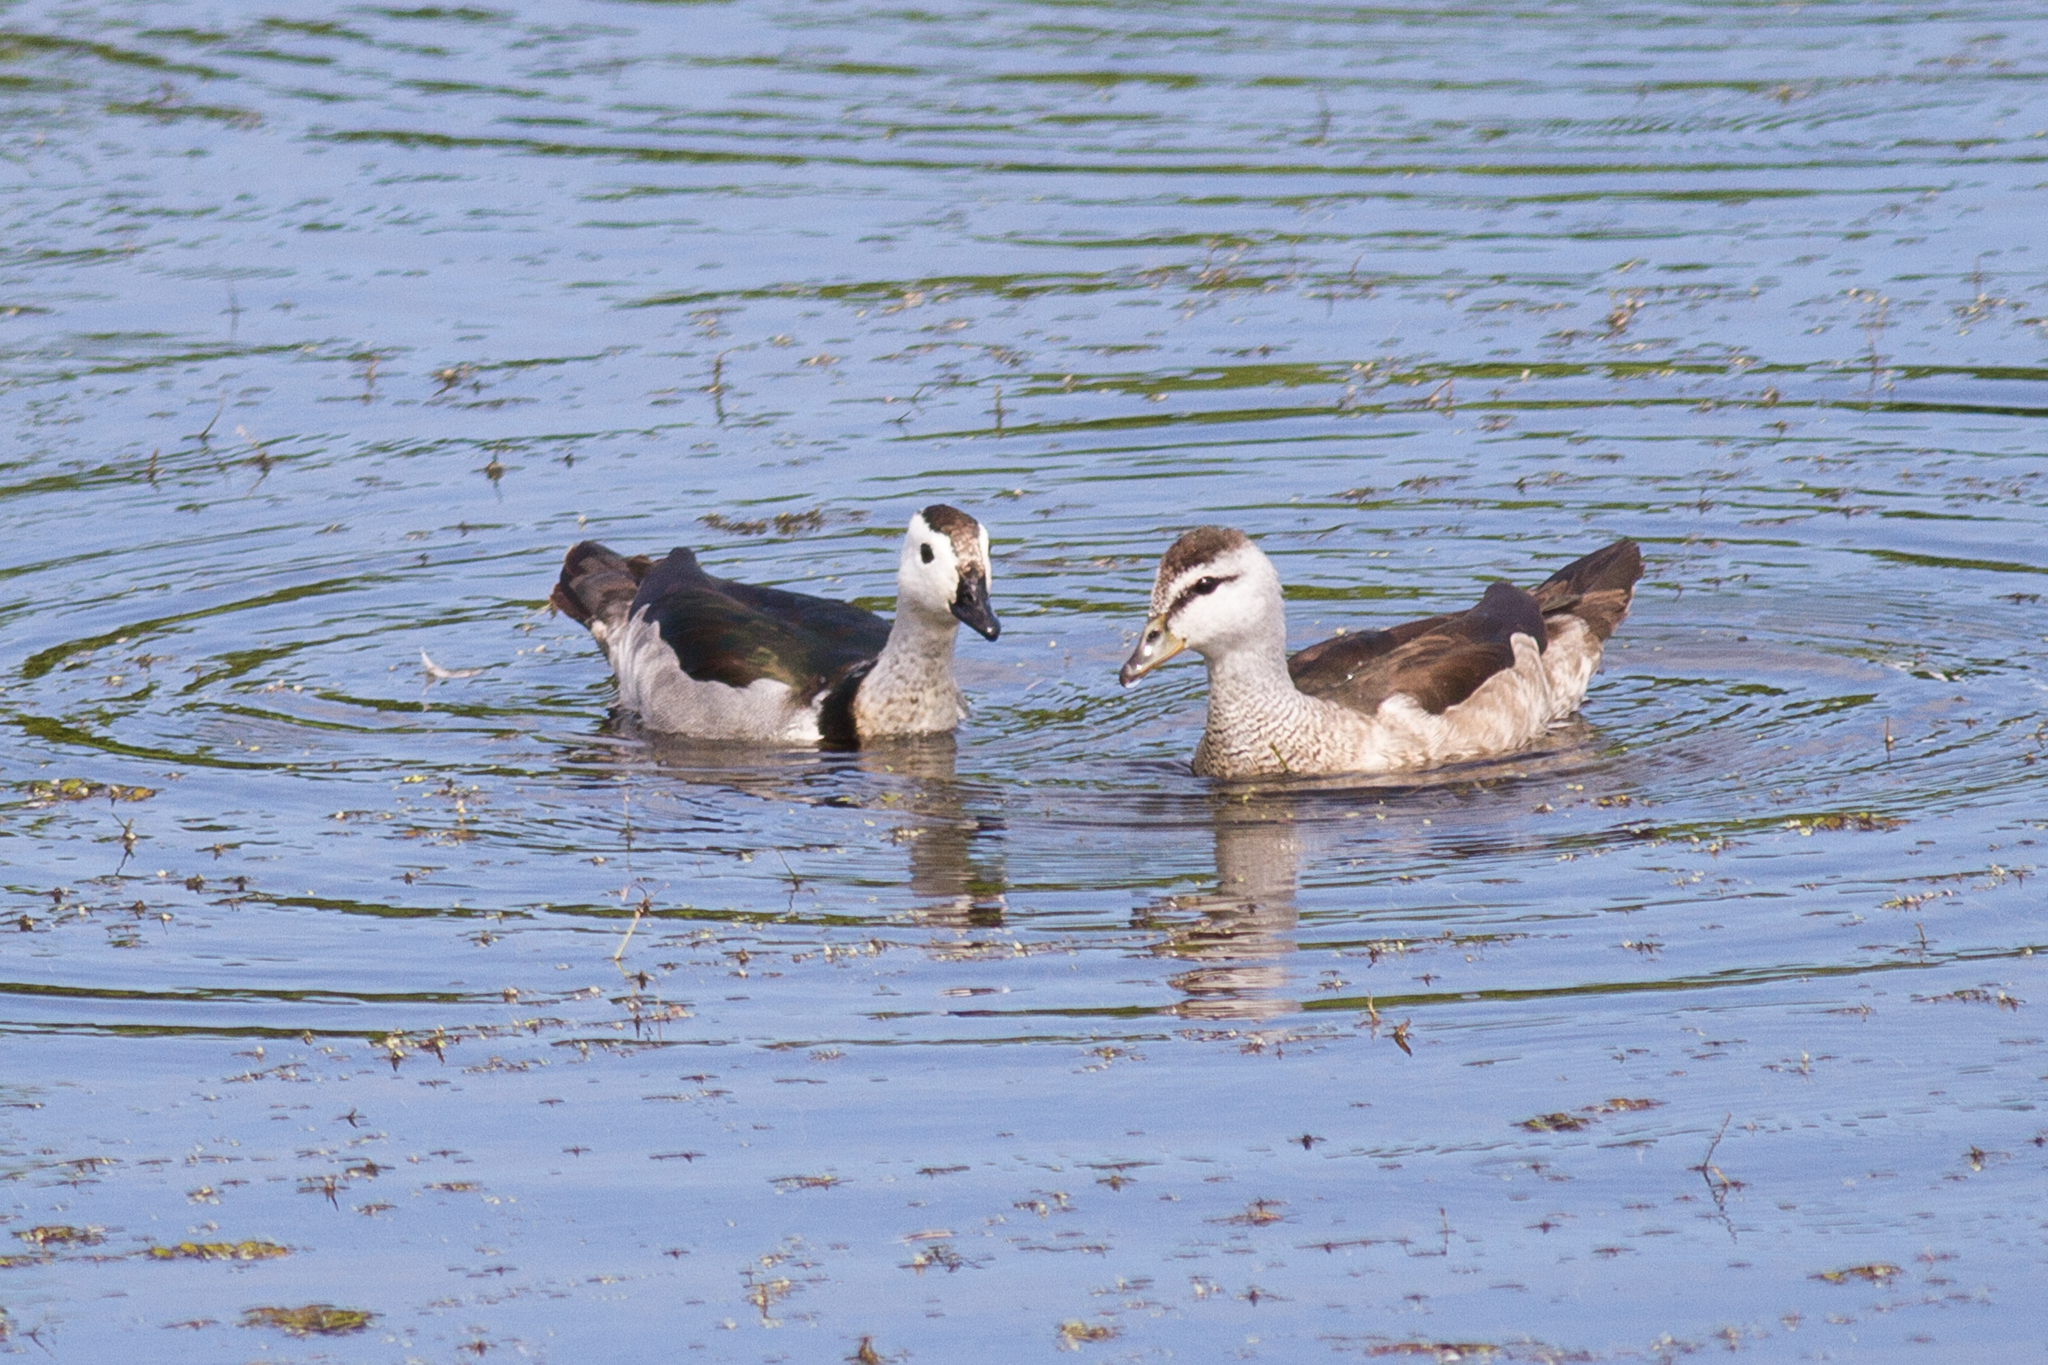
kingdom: Animalia
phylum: Chordata
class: Aves
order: Anseriformes
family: Anatidae
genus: Nettapus
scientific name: Nettapus coromandelianus
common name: Cotton pygmy-goose
